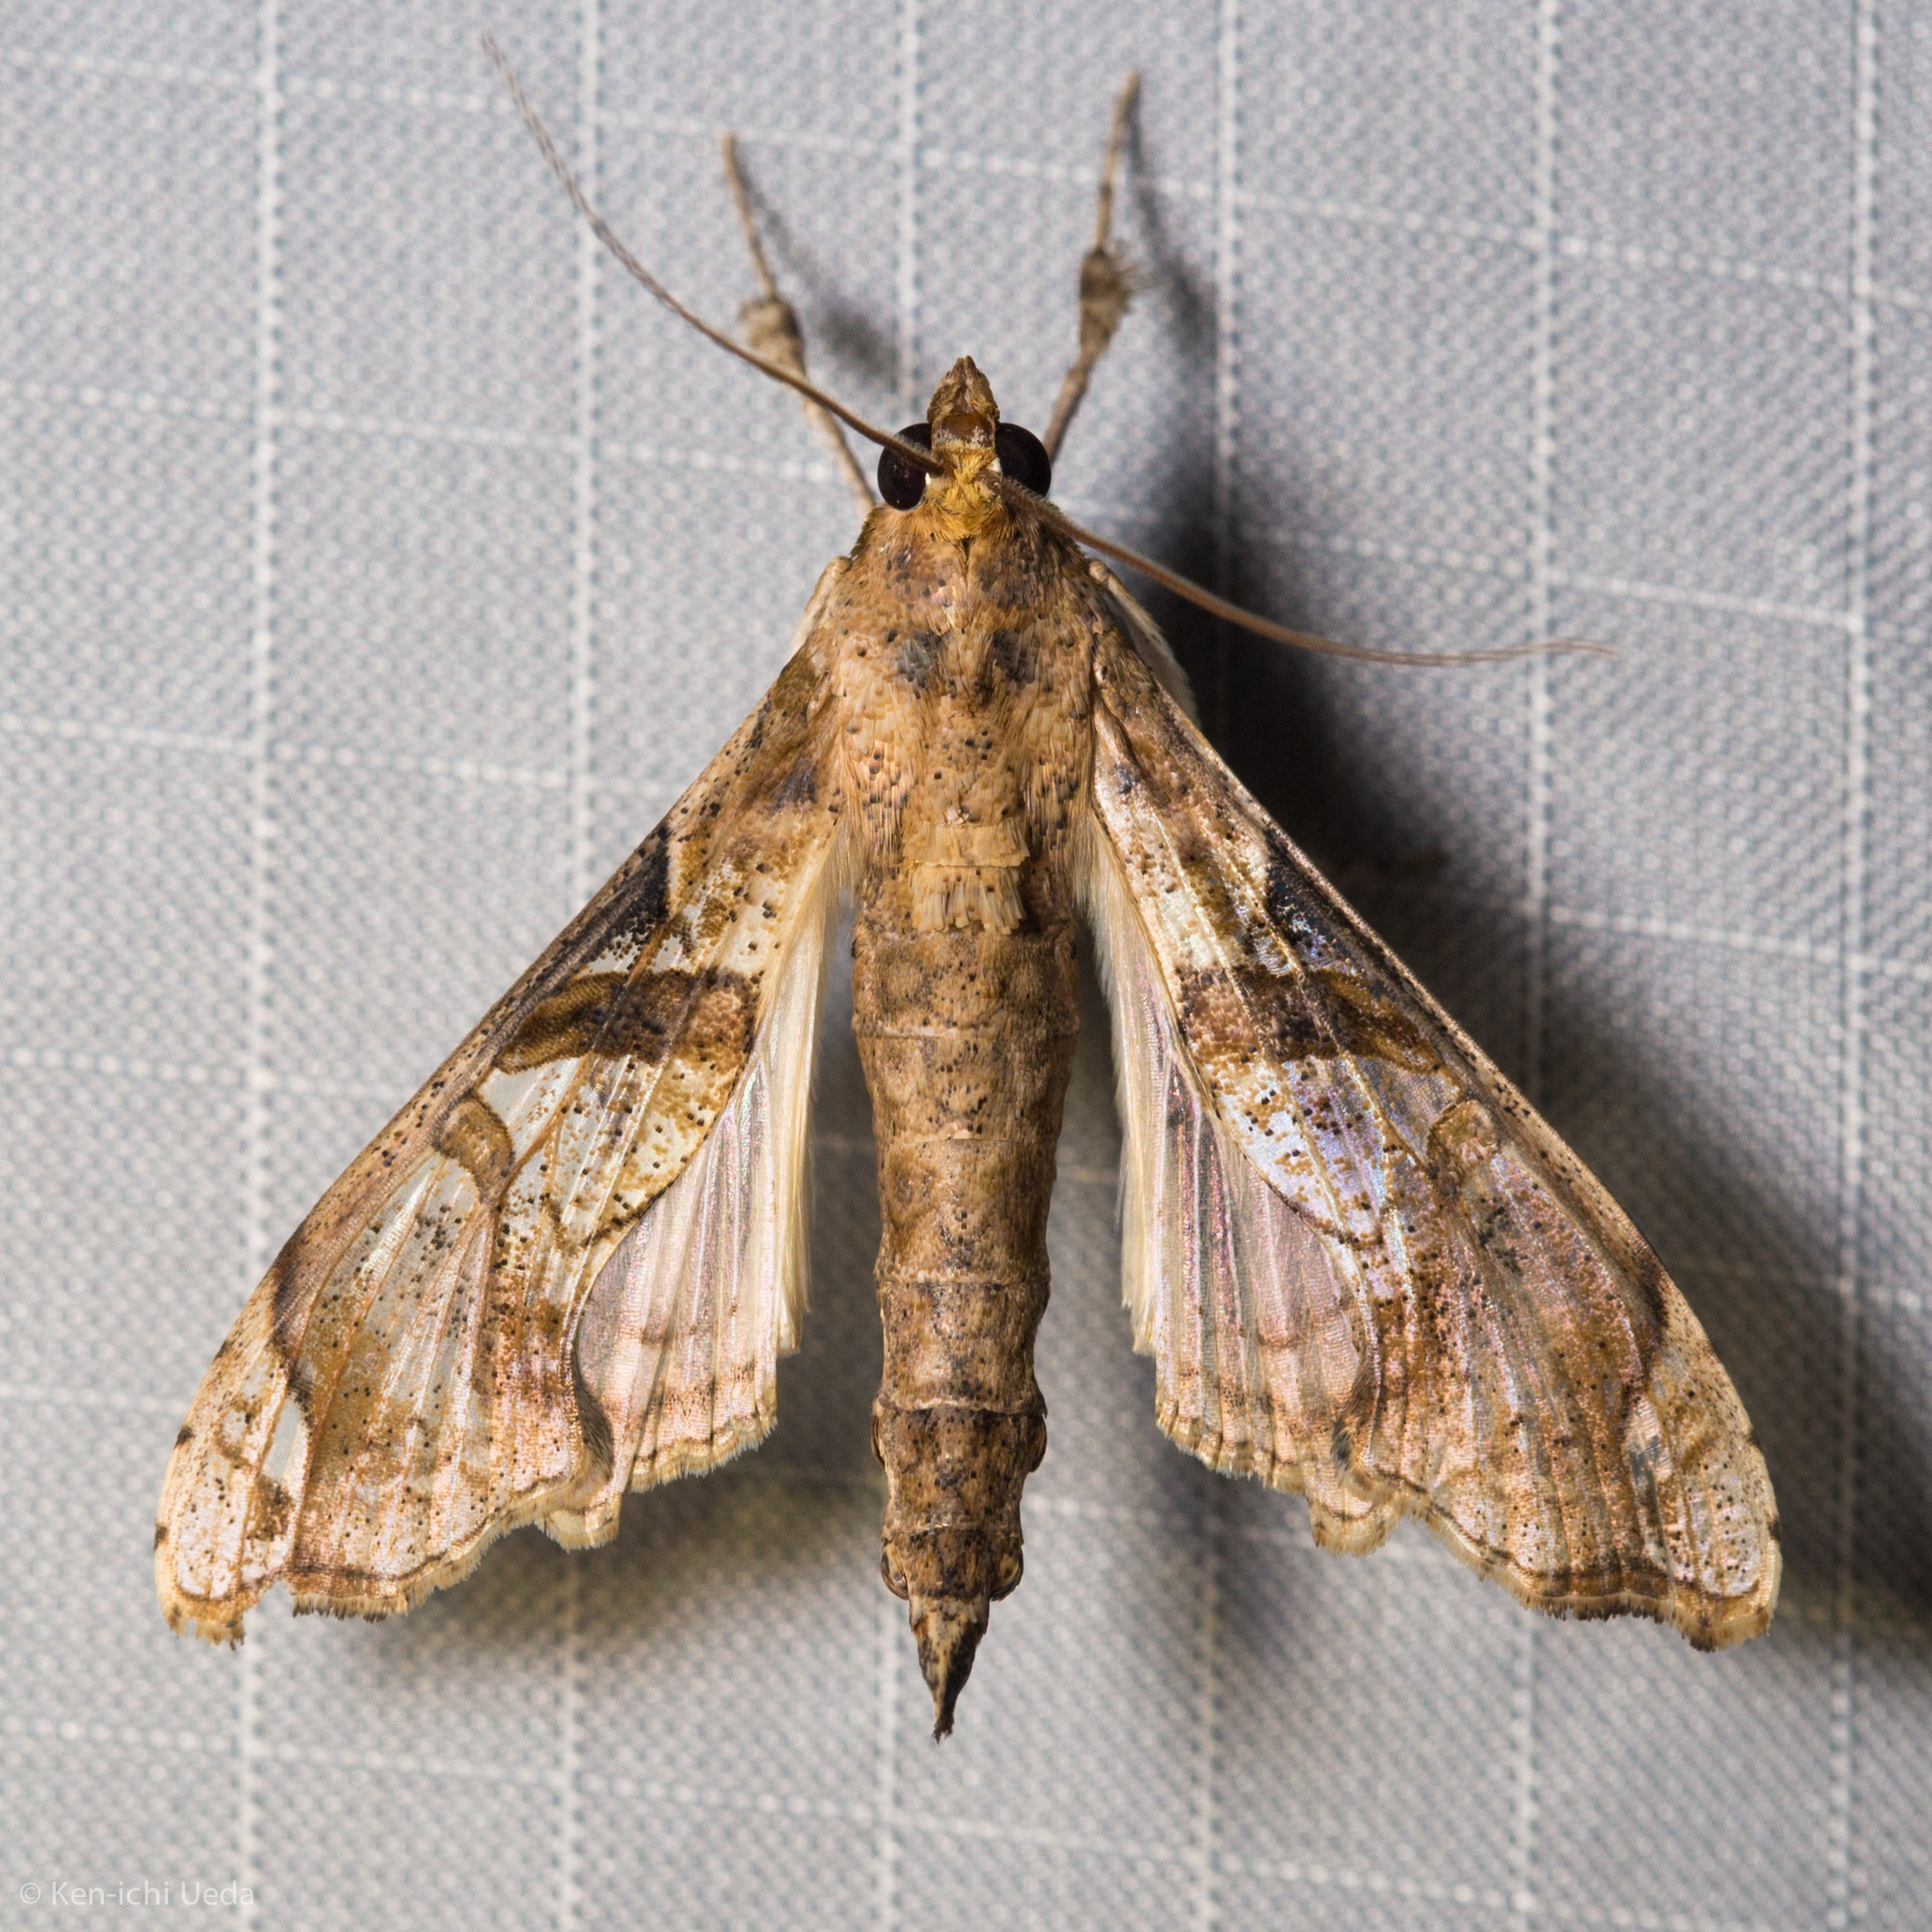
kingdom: Animalia
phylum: Arthropoda
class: Insecta
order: Lepidoptera
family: Crambidae
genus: Terastia
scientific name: Terastia meticulosalis
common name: Moth
